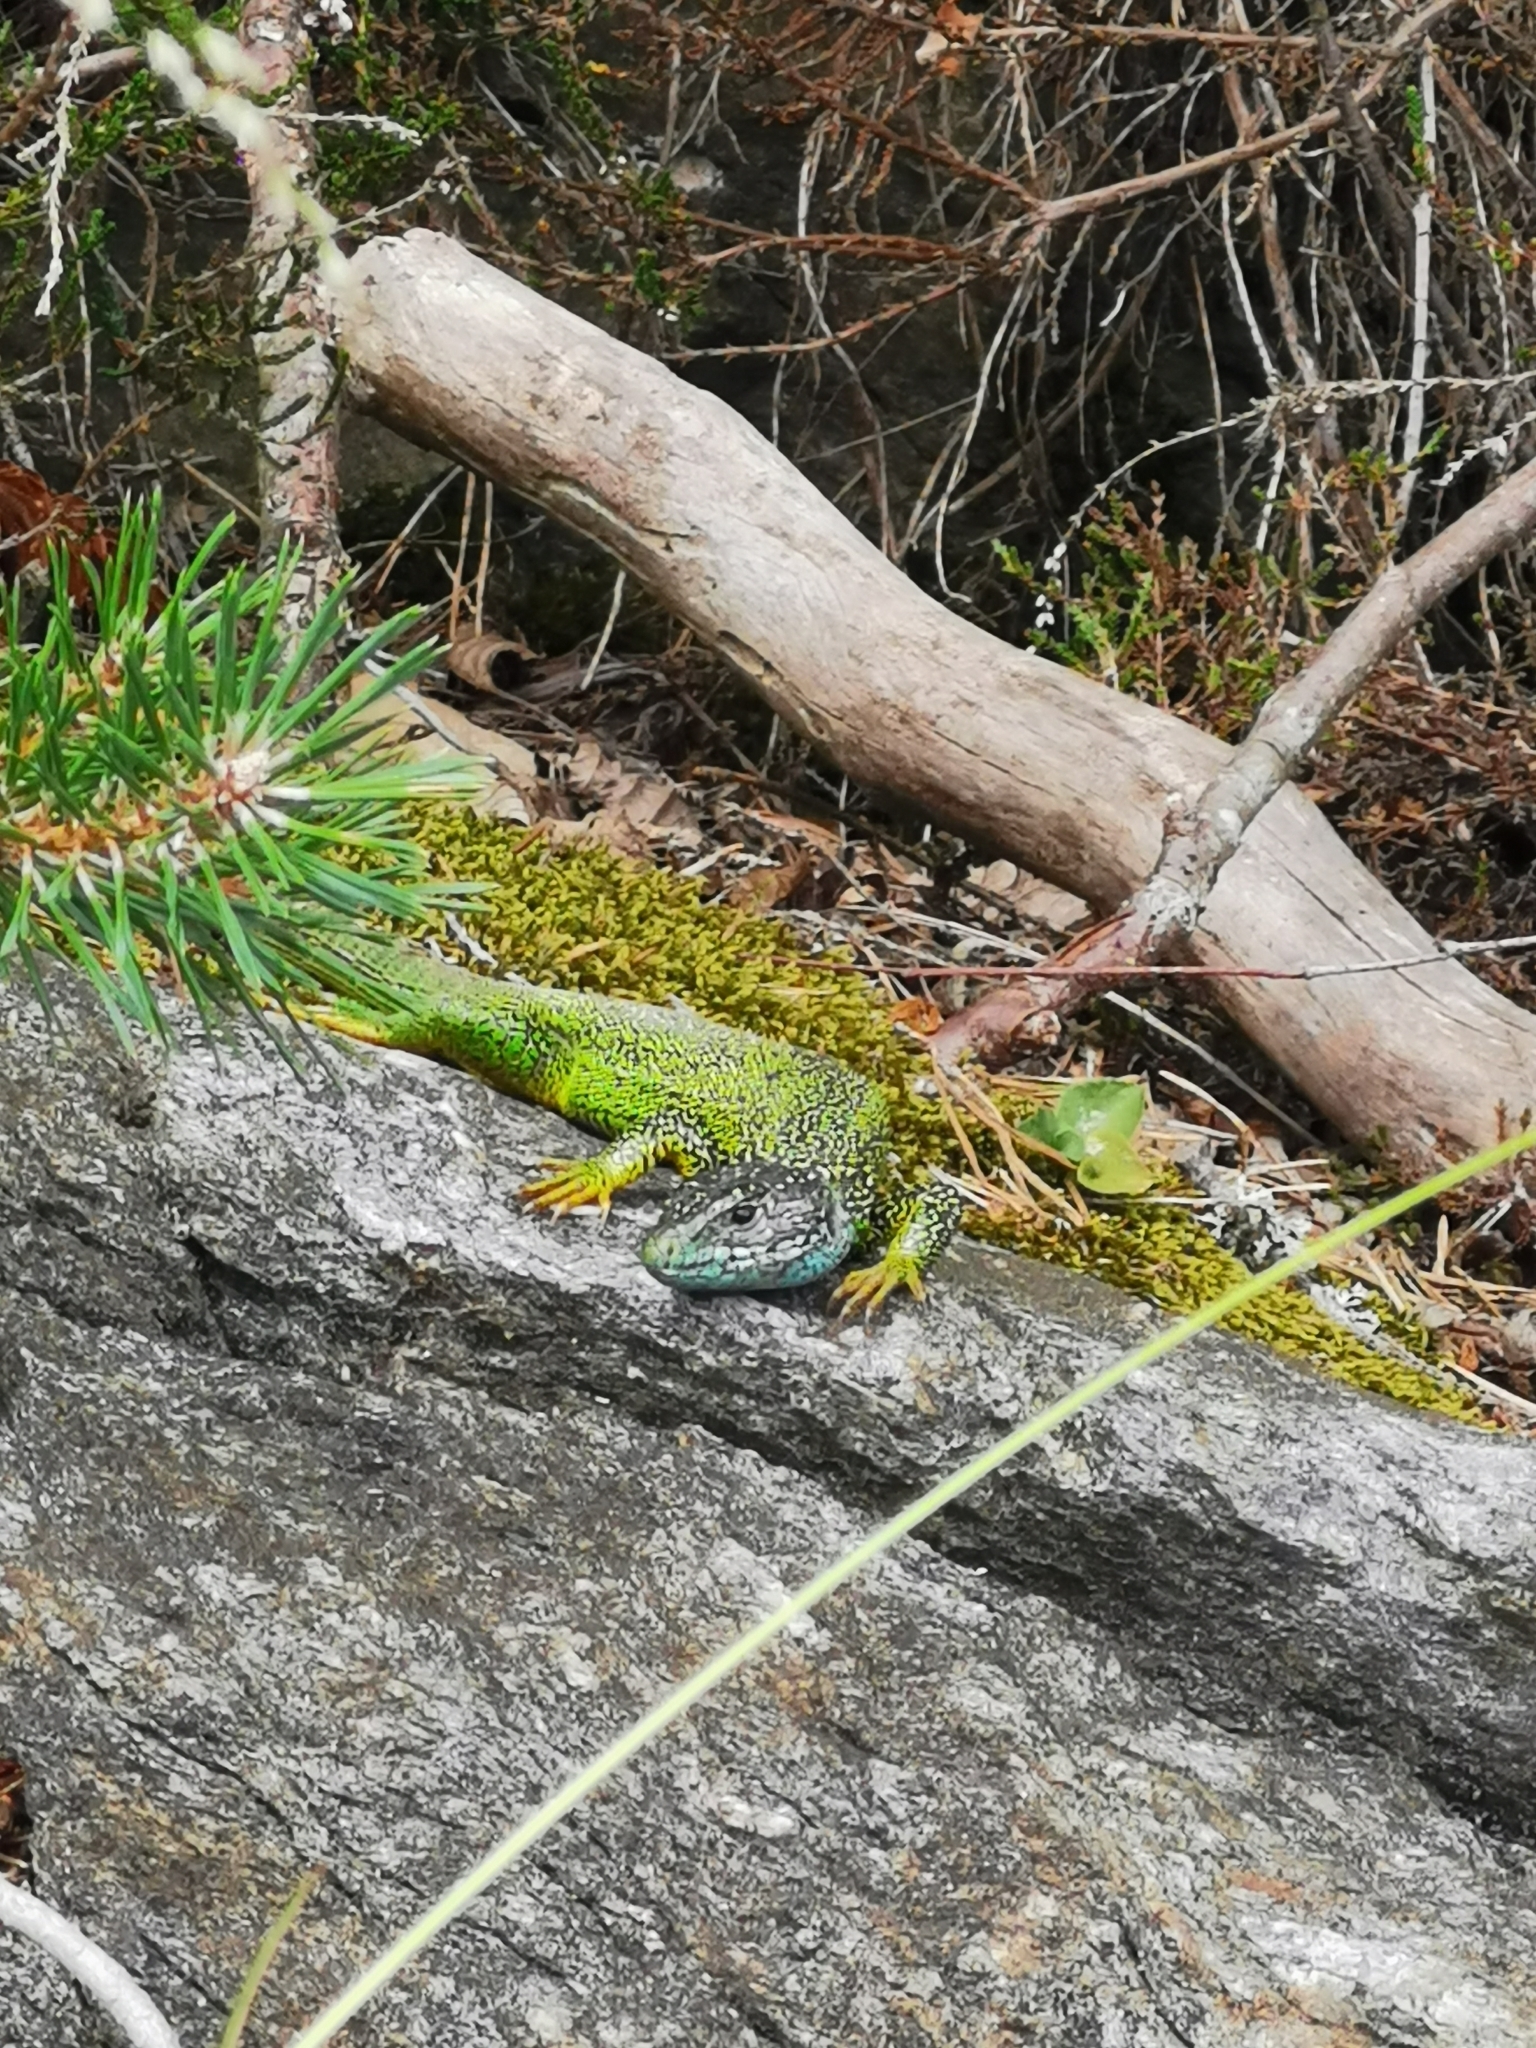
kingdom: Animalia
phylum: Chordata
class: Squamata
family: Lacertidae
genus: Lacerta
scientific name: Lacerta viridis
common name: European green lizard
